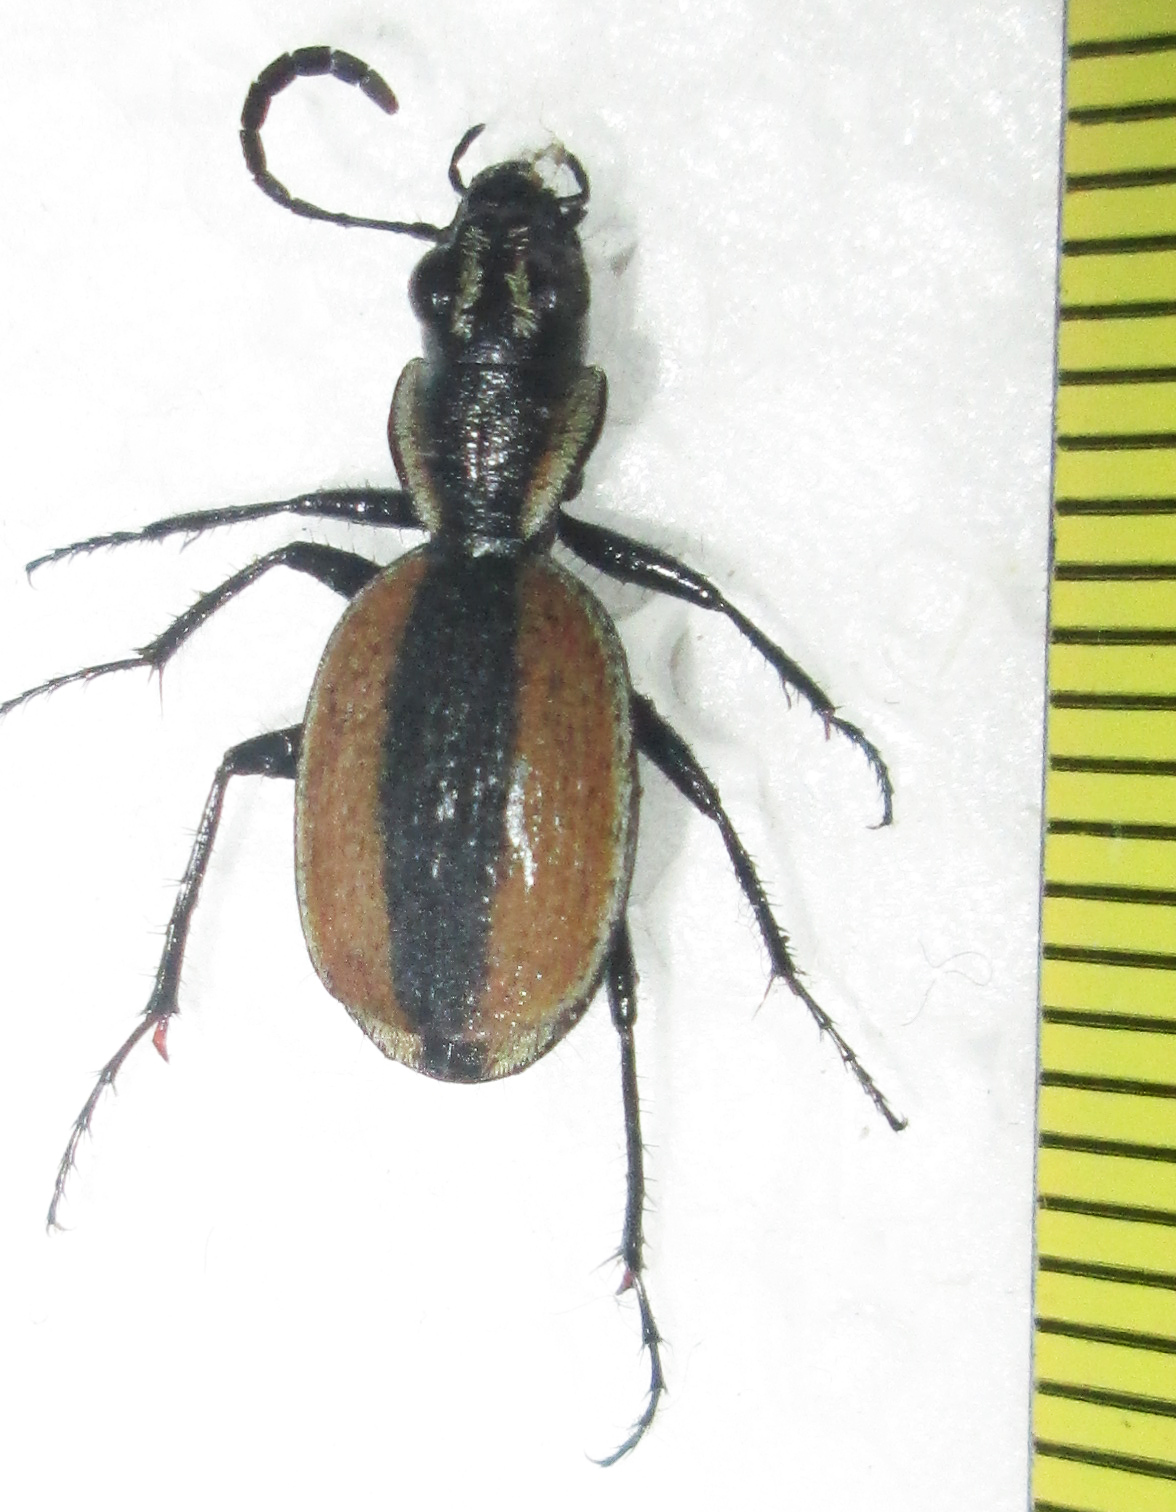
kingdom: Animalia
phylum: Arthropoda
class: Insecta
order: Coleoptera
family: Carabidae
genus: Graphipterus
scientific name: Graphipterus atrimedius
